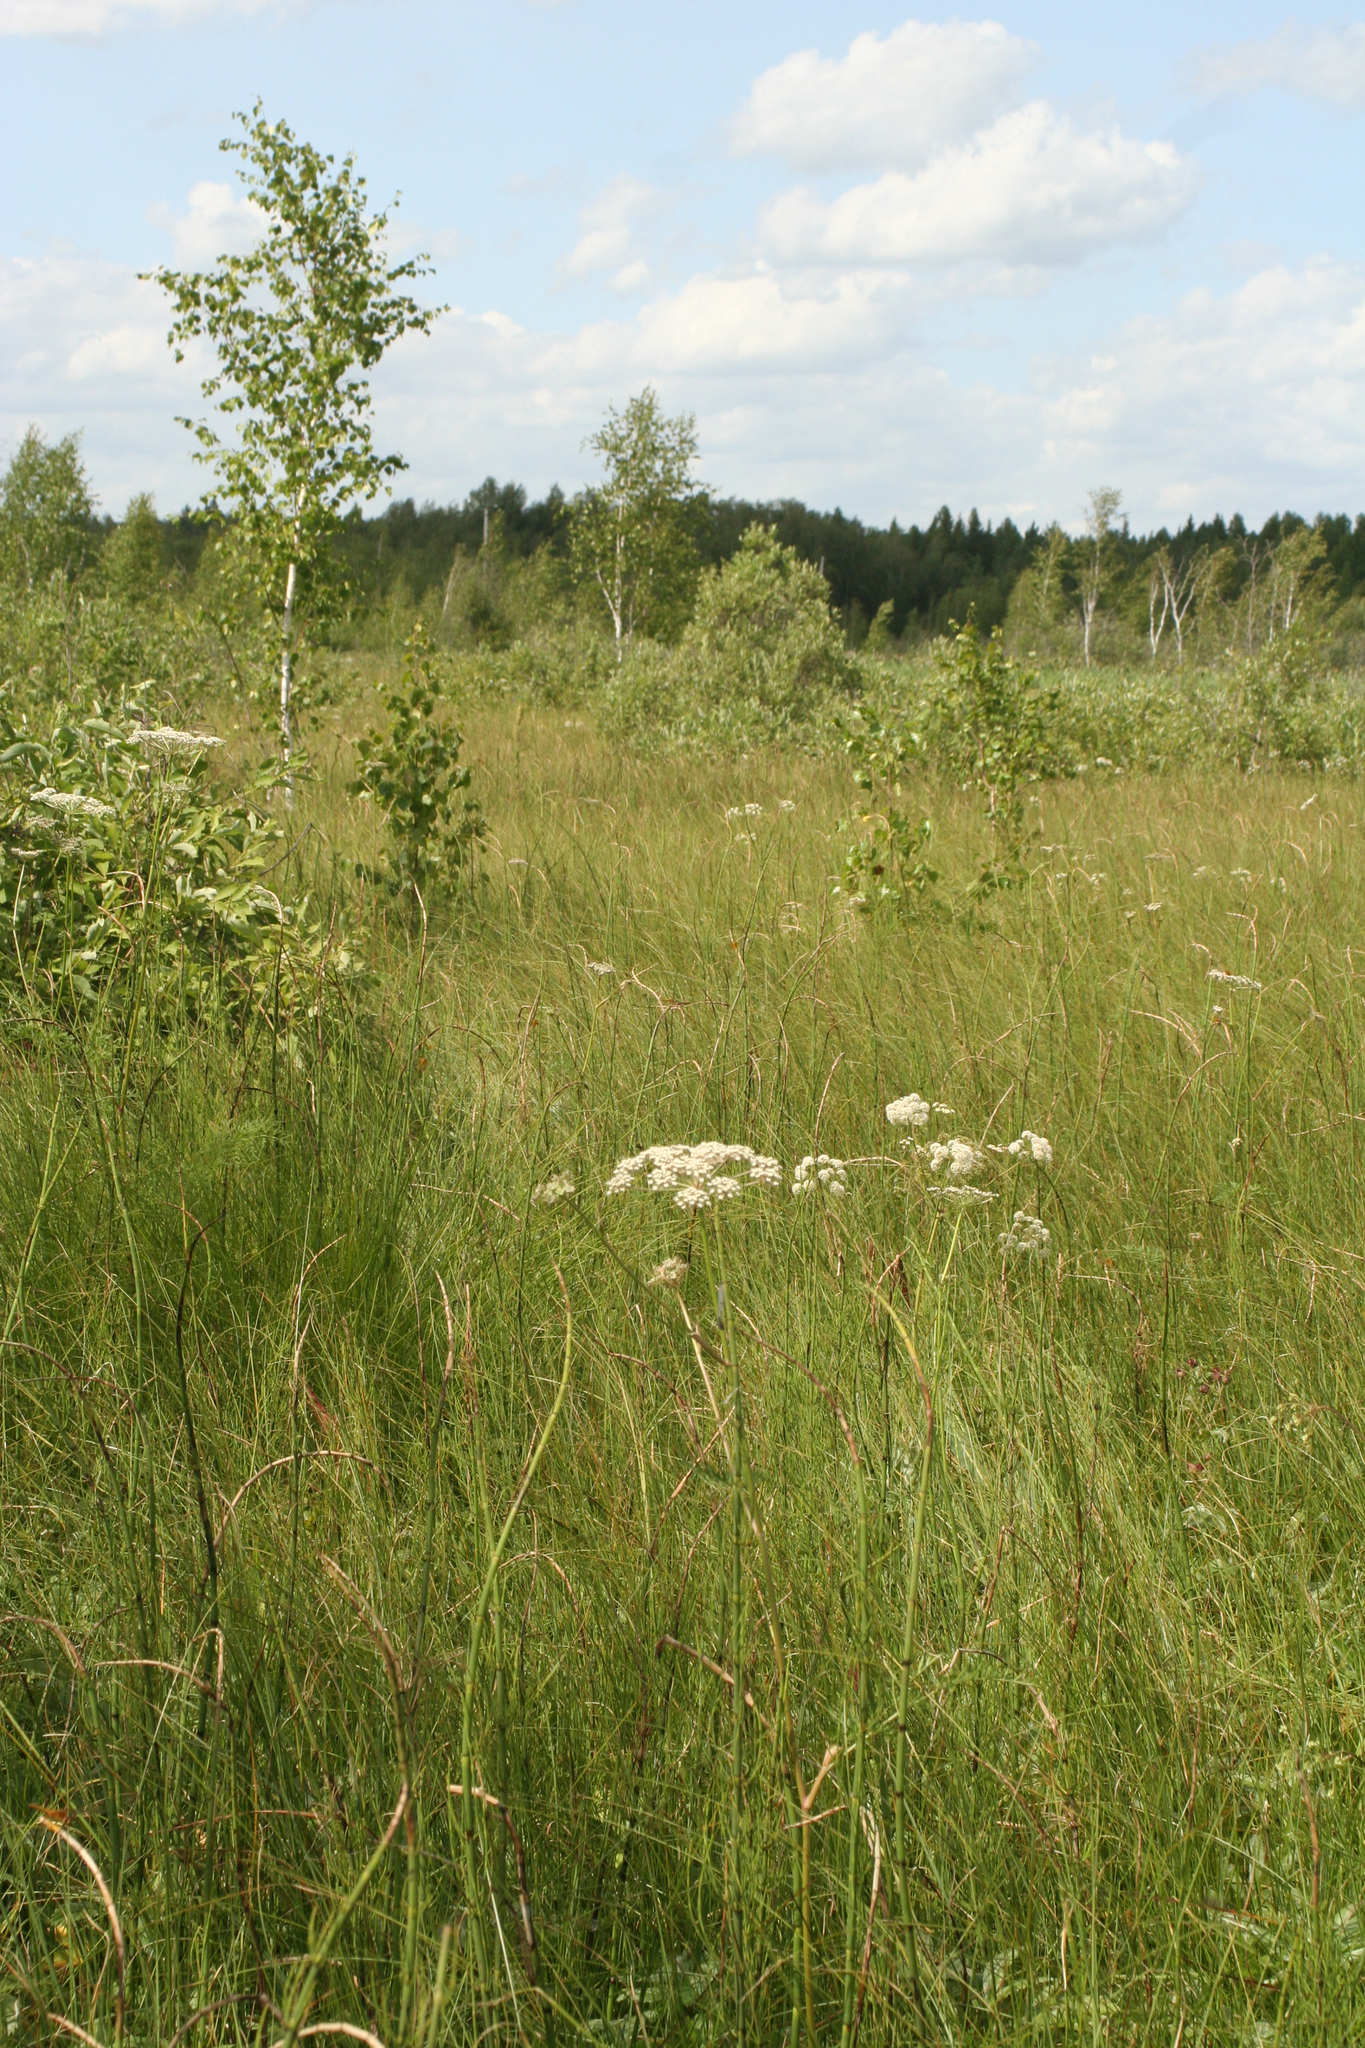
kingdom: Plantae
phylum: Tracheophyta
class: Magnoliopsida
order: Apiales
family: Apiaceae
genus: Cicuta
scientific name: Cicuta virosa
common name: Cowbane
